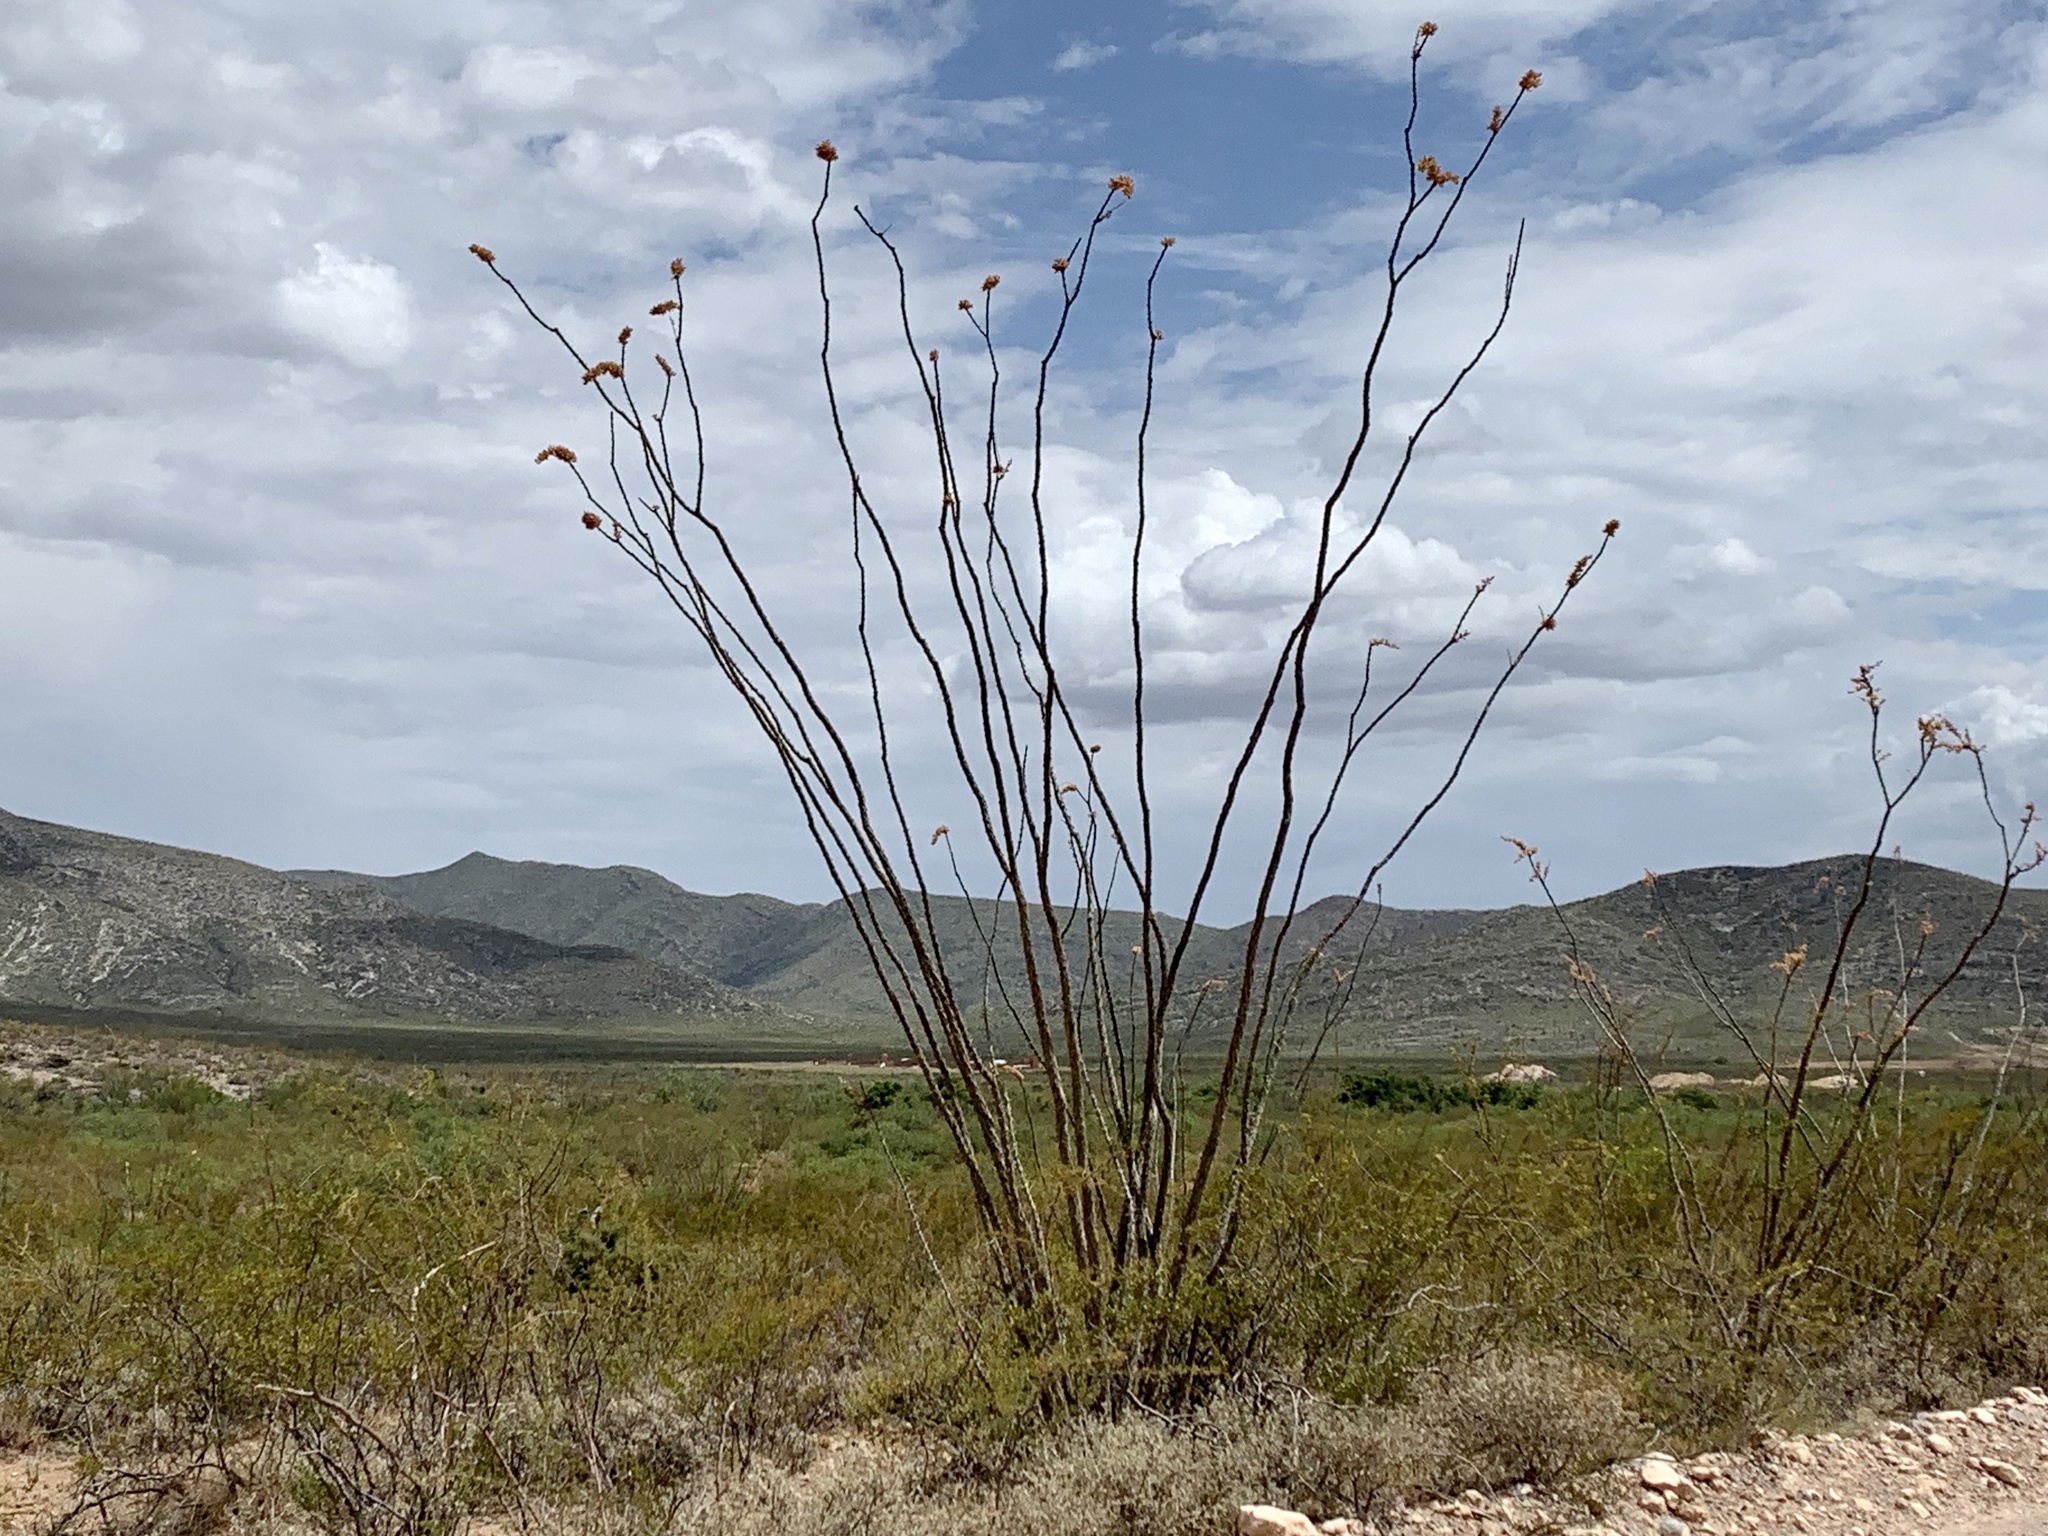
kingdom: Plantae
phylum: Tracheophyta
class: Magnoliopsida
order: Ericales
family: Fouquieriaceae
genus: Fouquieria
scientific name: Fouquieria splendens
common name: Vine-cactus
